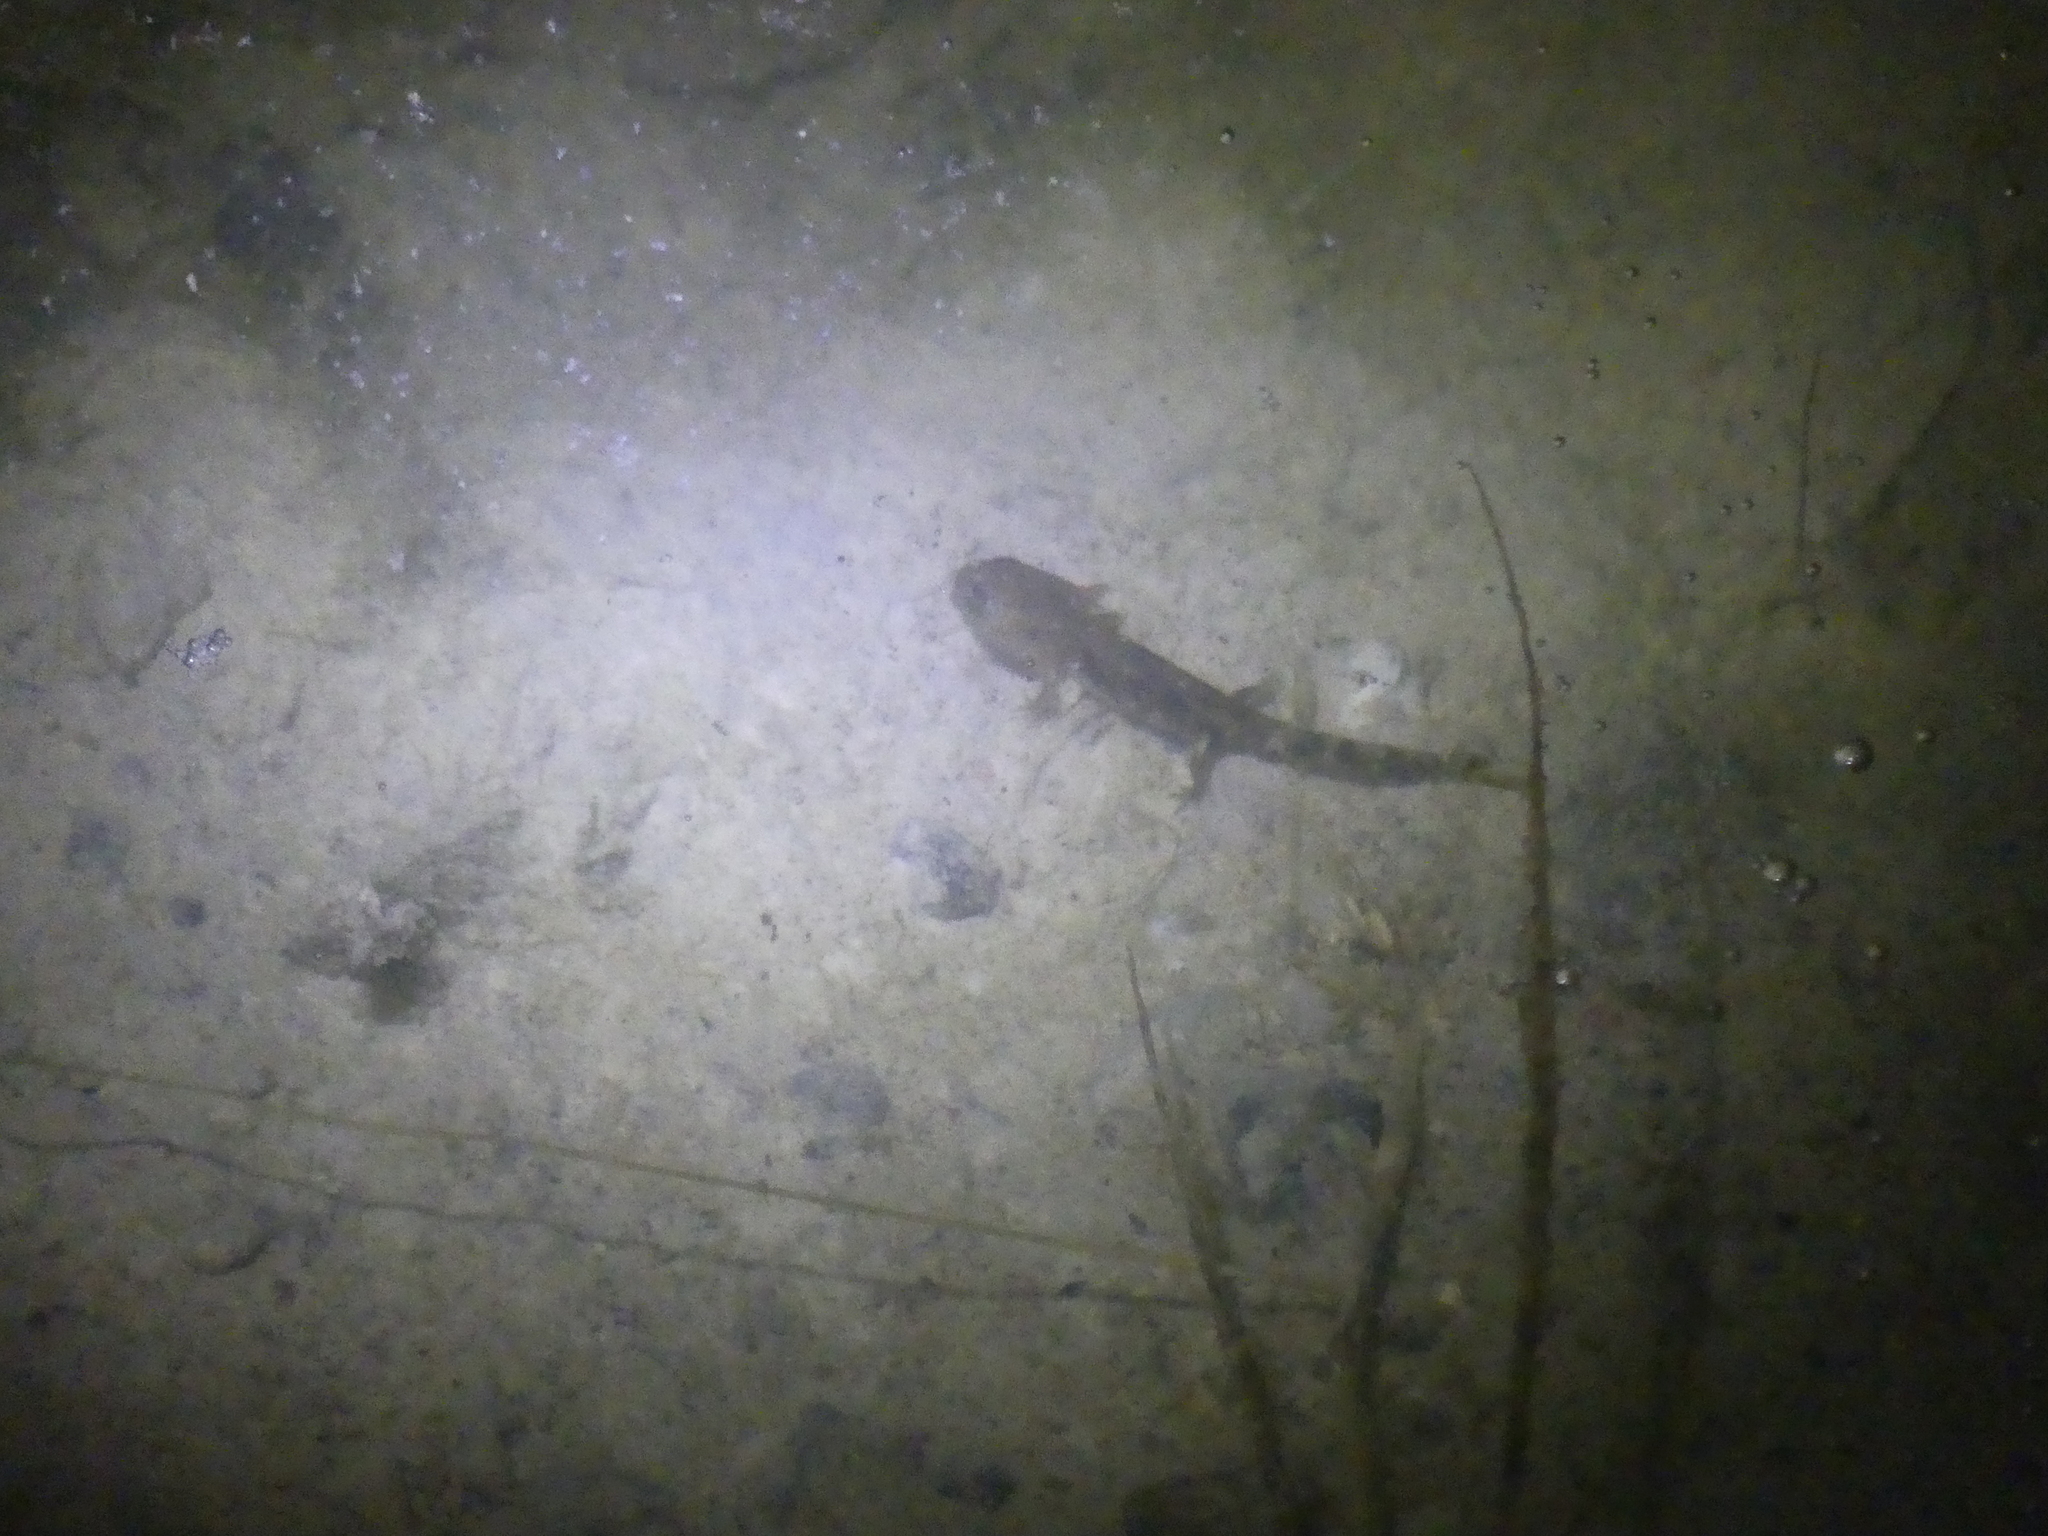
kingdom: Animalia
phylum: Chordata
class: Amphibia
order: Caudata
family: Salamandridae
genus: Salamandra
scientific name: Salamandra salamandra
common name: Fire salamander
